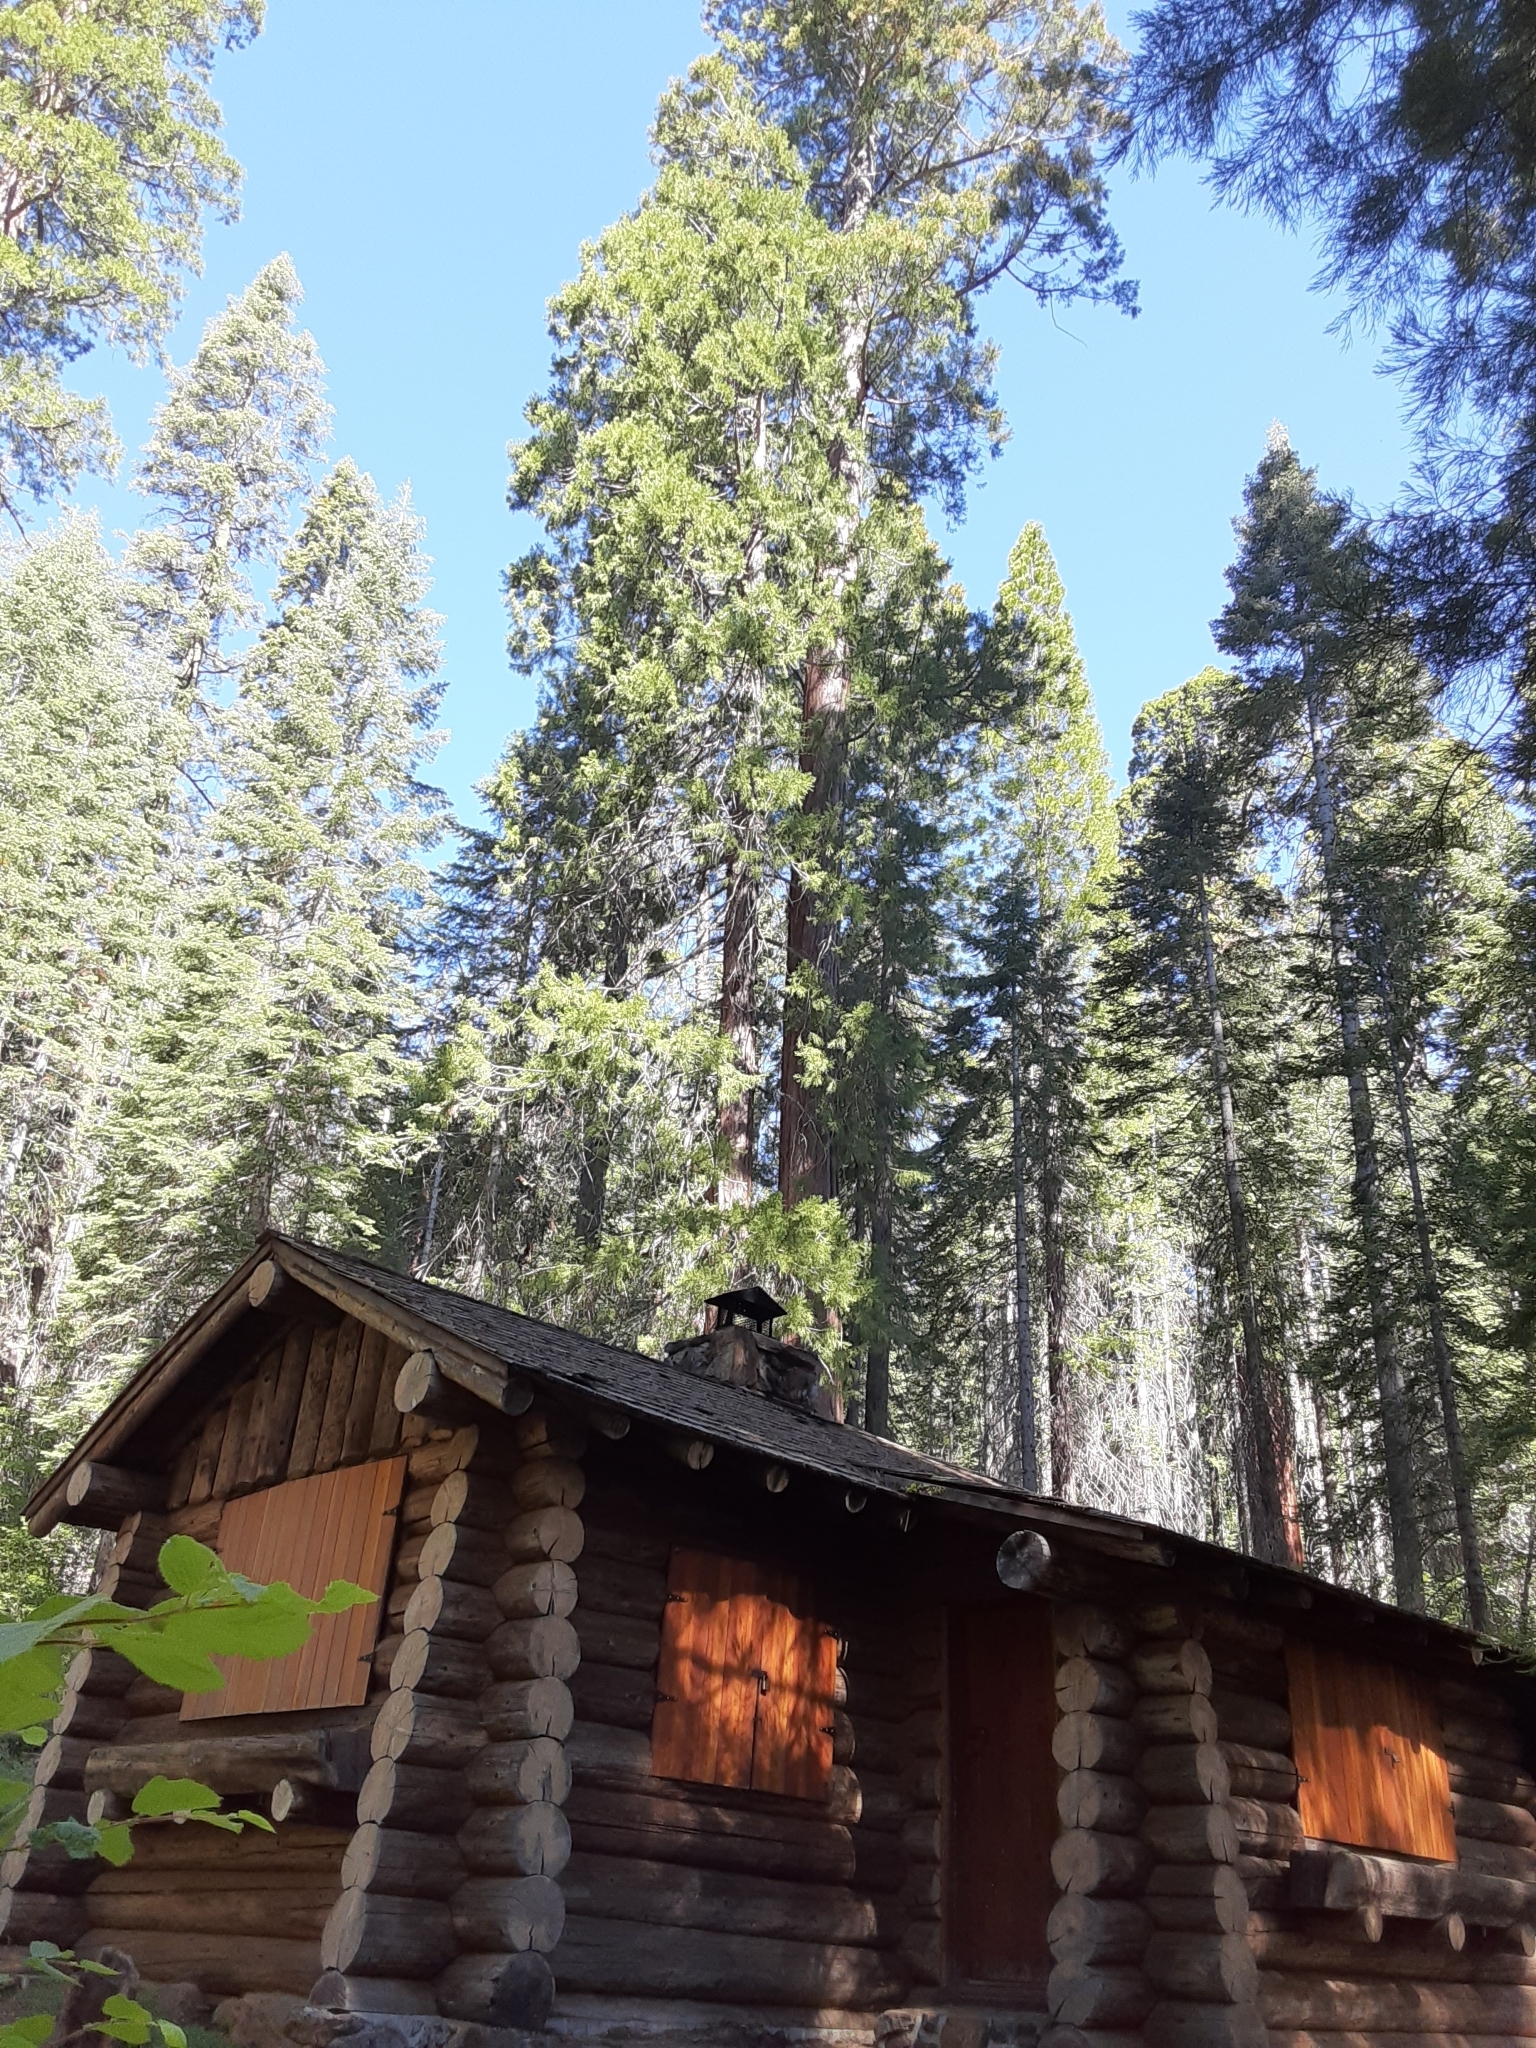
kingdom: Plantae
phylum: Tracheophyta
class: Pinopsida
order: Pinales
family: Cupressaceae
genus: Sequoiadendron
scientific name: Sequoiadendron giganteum
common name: Wellingtonia
